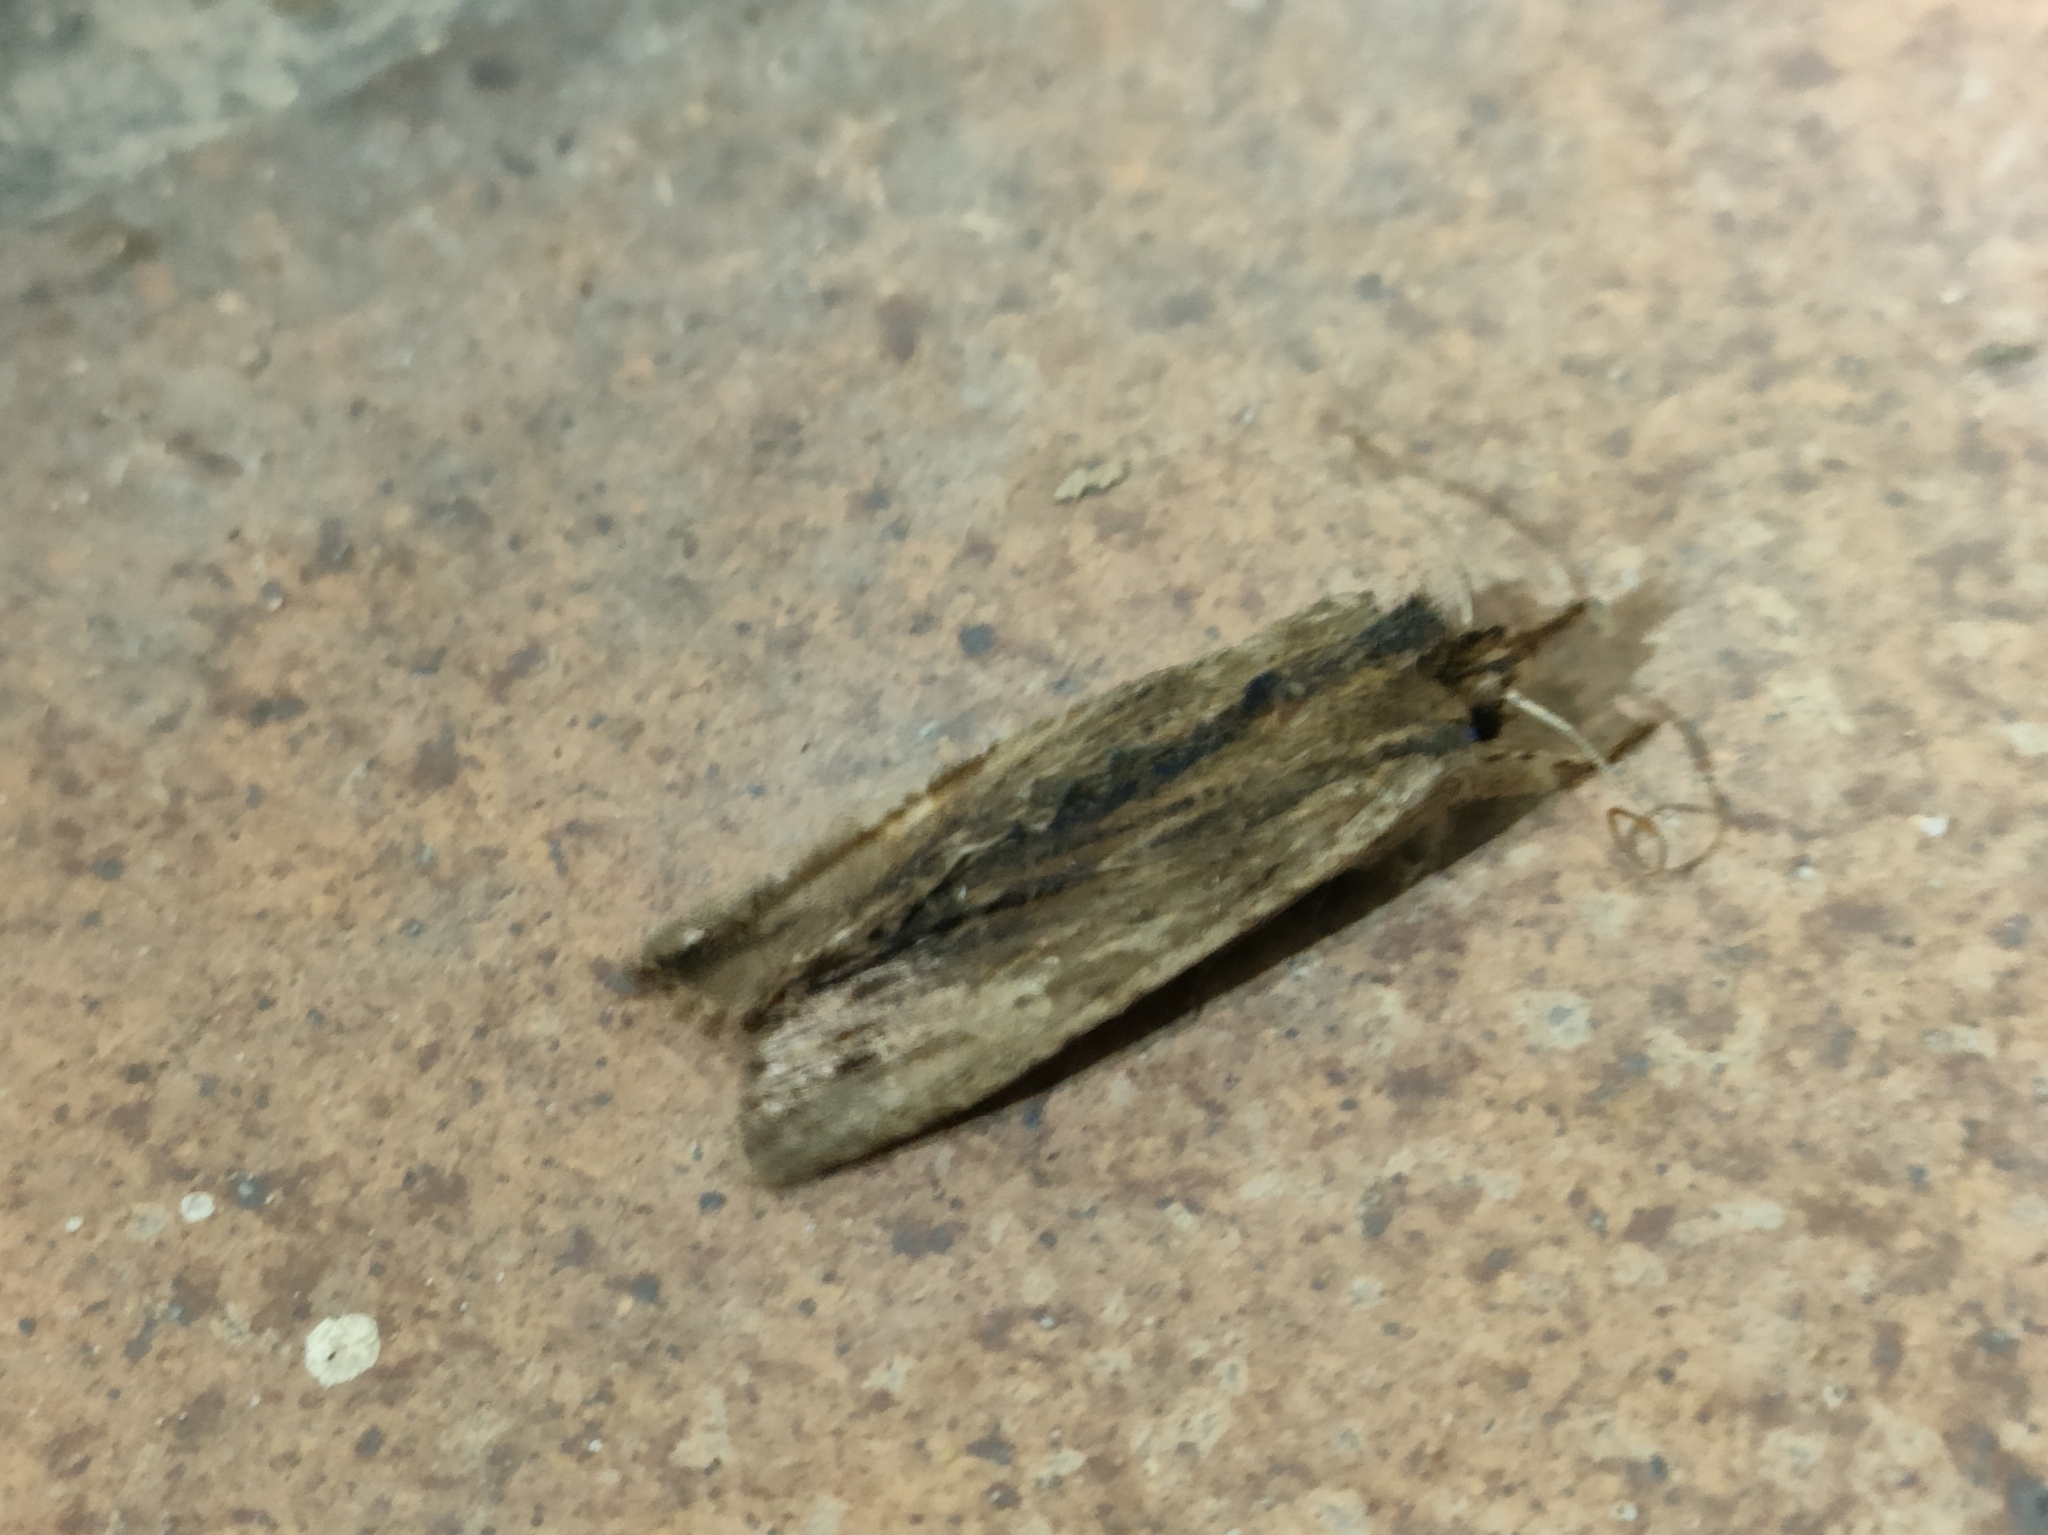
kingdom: Animalia
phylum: Arthropoda
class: Insecta
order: Lepidoptera
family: Noctuidae
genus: Lithophane
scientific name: Lithophane semibrunnea
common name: Tawny pinion
